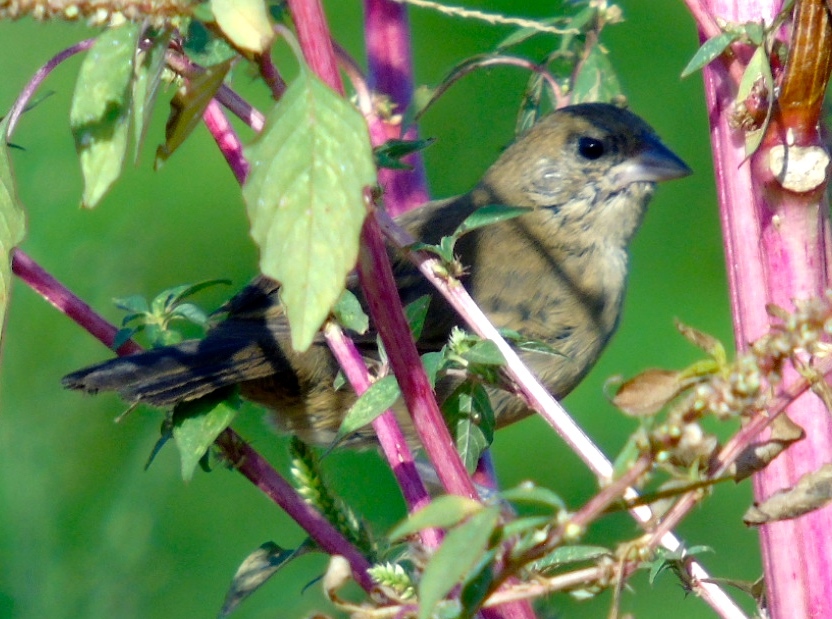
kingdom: Animalia
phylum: Chordata
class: Aves
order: Passeriformes
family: Thraupidae
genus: Volatinia
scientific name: Volatinia jacarina
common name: Blue-black grassquit
